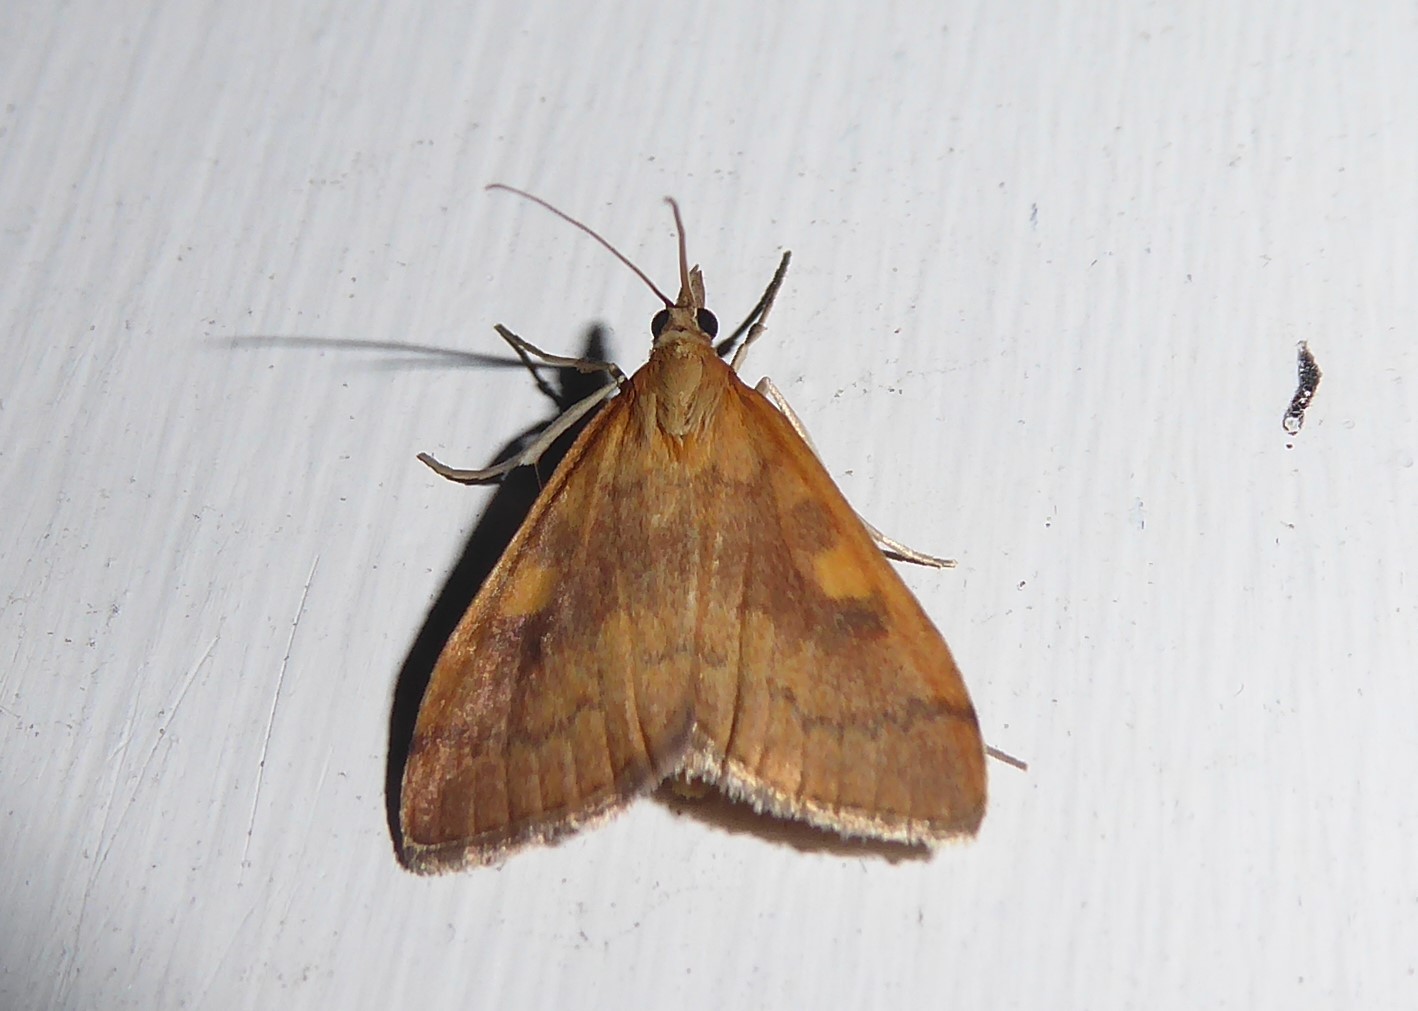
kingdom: Animalia
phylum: Arthropoda
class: Insecta
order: Lepidoptera
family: Crambidae
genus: Udea
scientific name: Udea Mnesictena flavidalis
